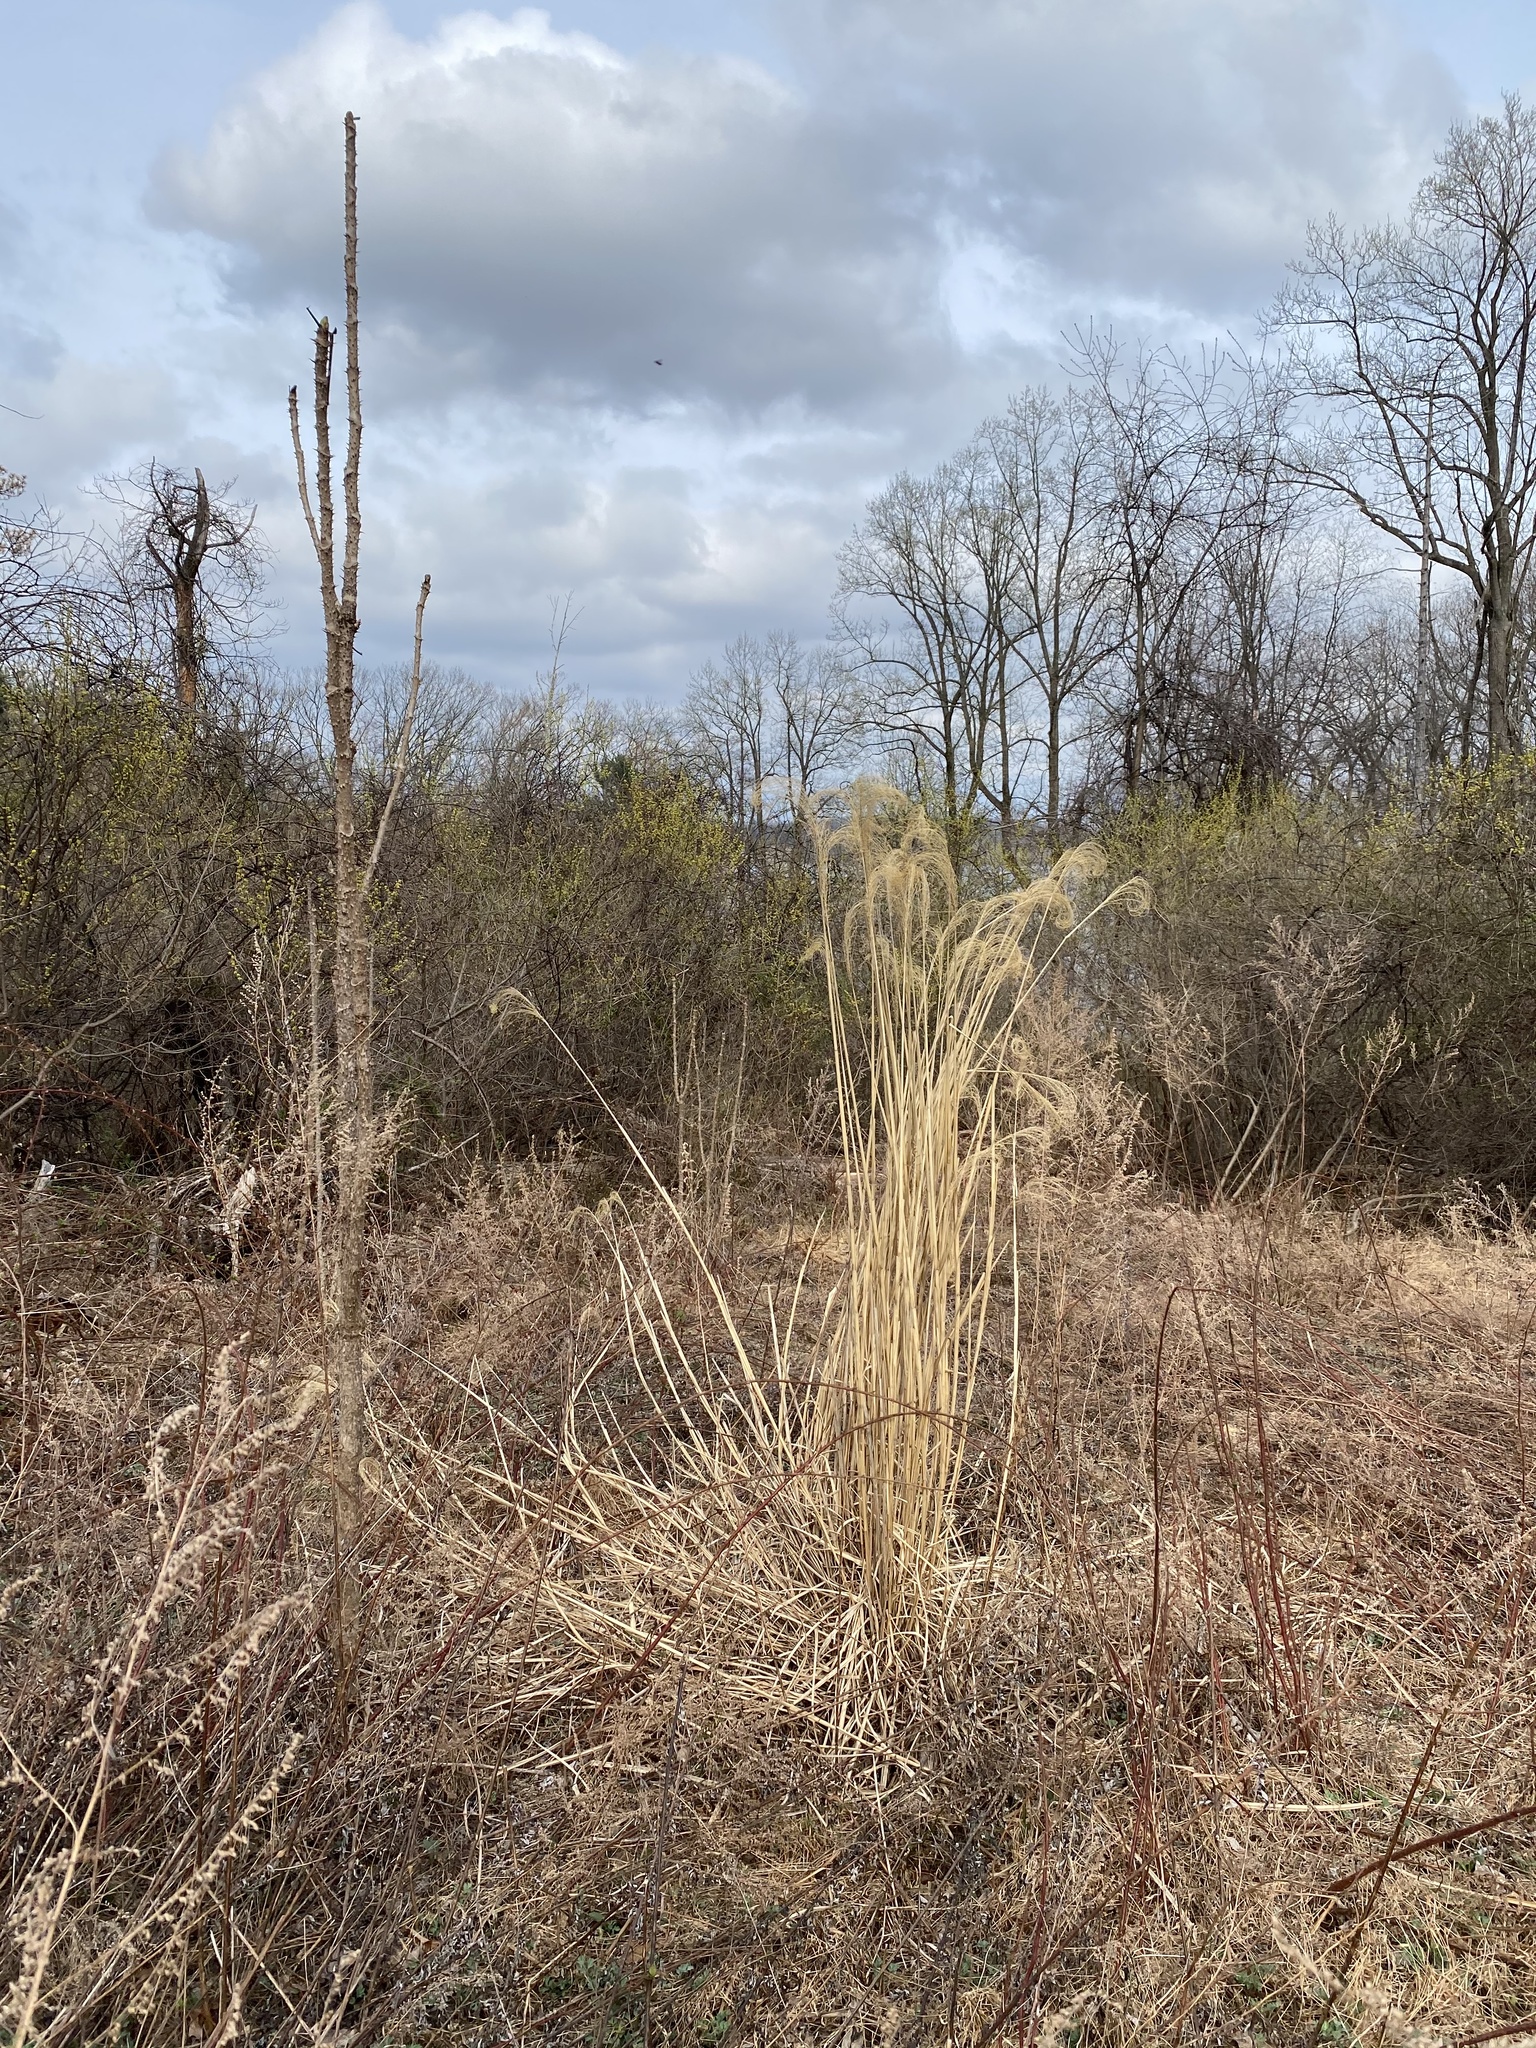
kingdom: Plantae
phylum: Tracheophyta
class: Liliopsida
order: Poales
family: Poaceae
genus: Miscanthus
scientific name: Miscanthus sinensis
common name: Chinese silvergrass
